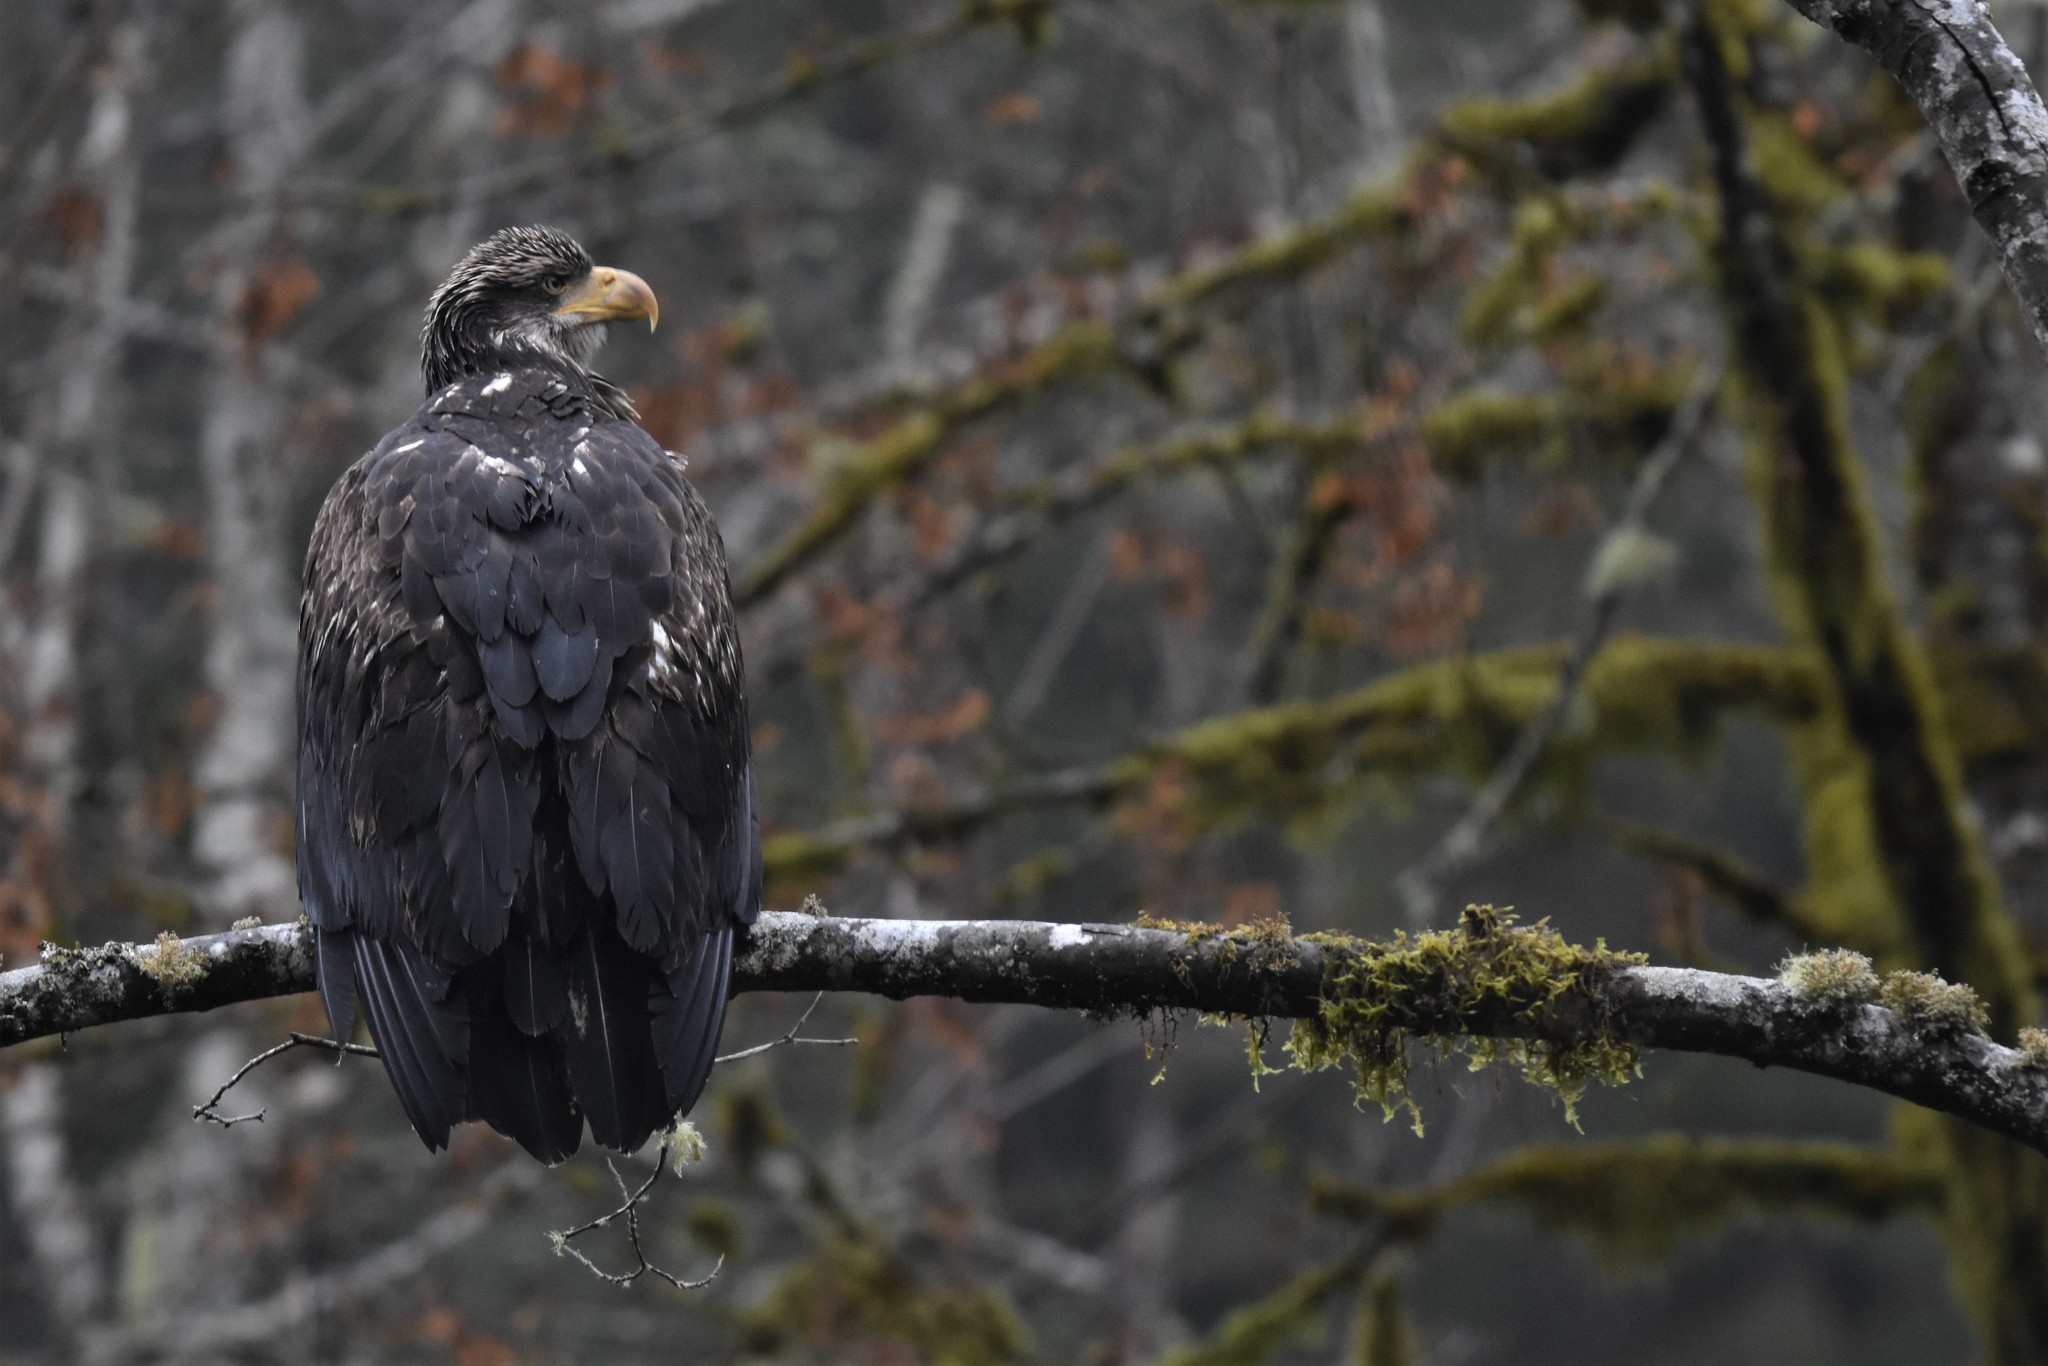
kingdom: Animalia
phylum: Chordata
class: Aves
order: Accipitriformes
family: Accipitridae
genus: Haliaeetus
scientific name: Haliaeetus leucocephalus
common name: Bald eagle
